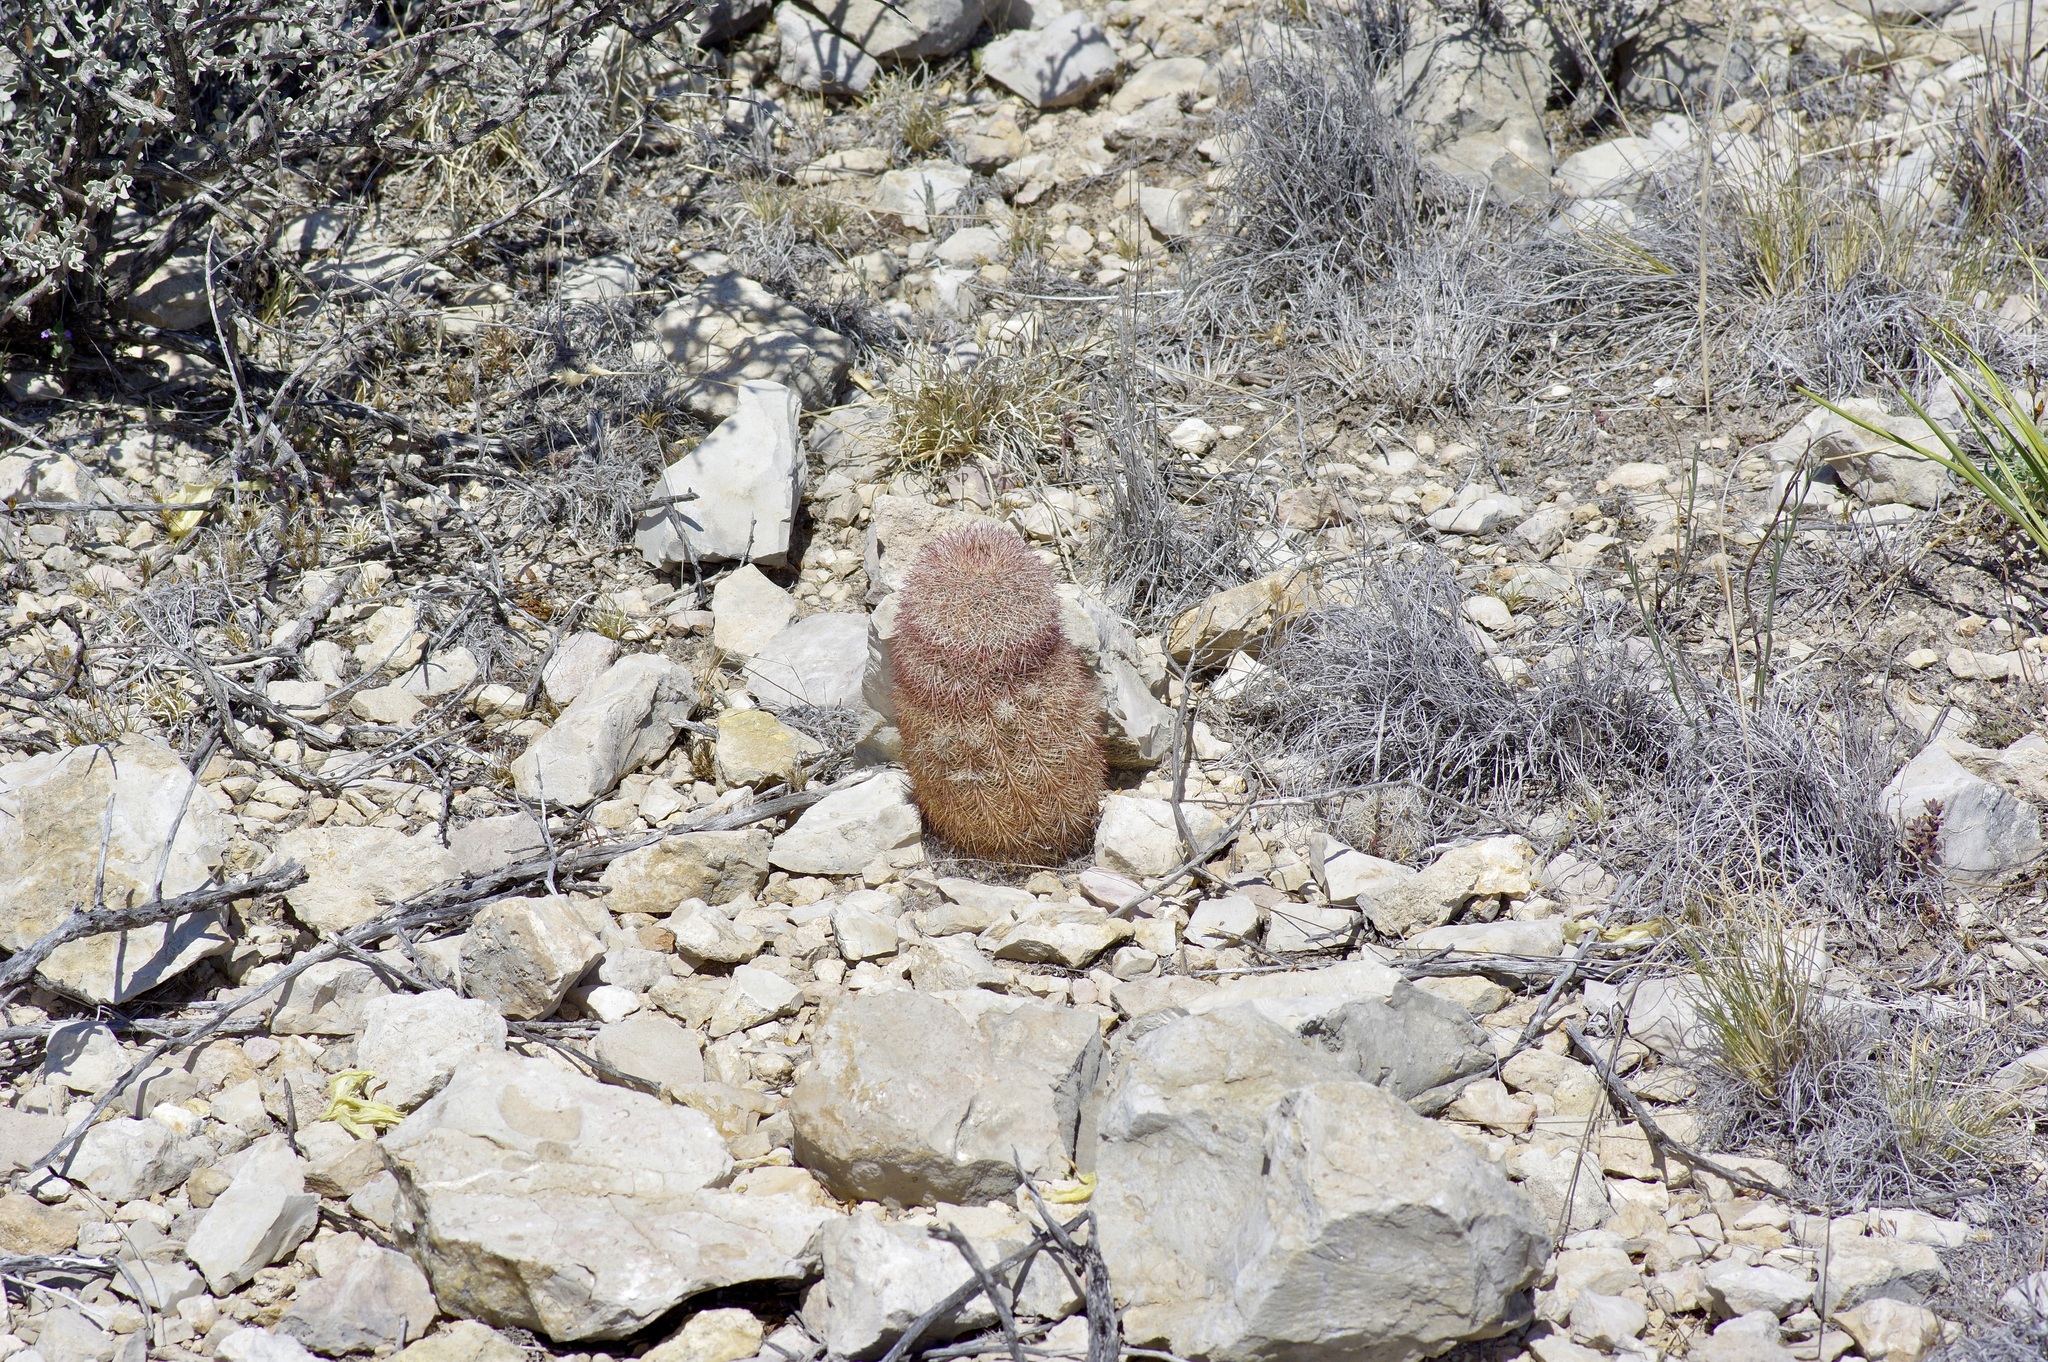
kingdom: Plantae
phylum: Tracheophyta
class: Magnoliopsida
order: Caryophyllales
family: Cactaceae
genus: Echinocereus
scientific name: Echinocereus dasyacanthus
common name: Spiny hedgehog cactus
